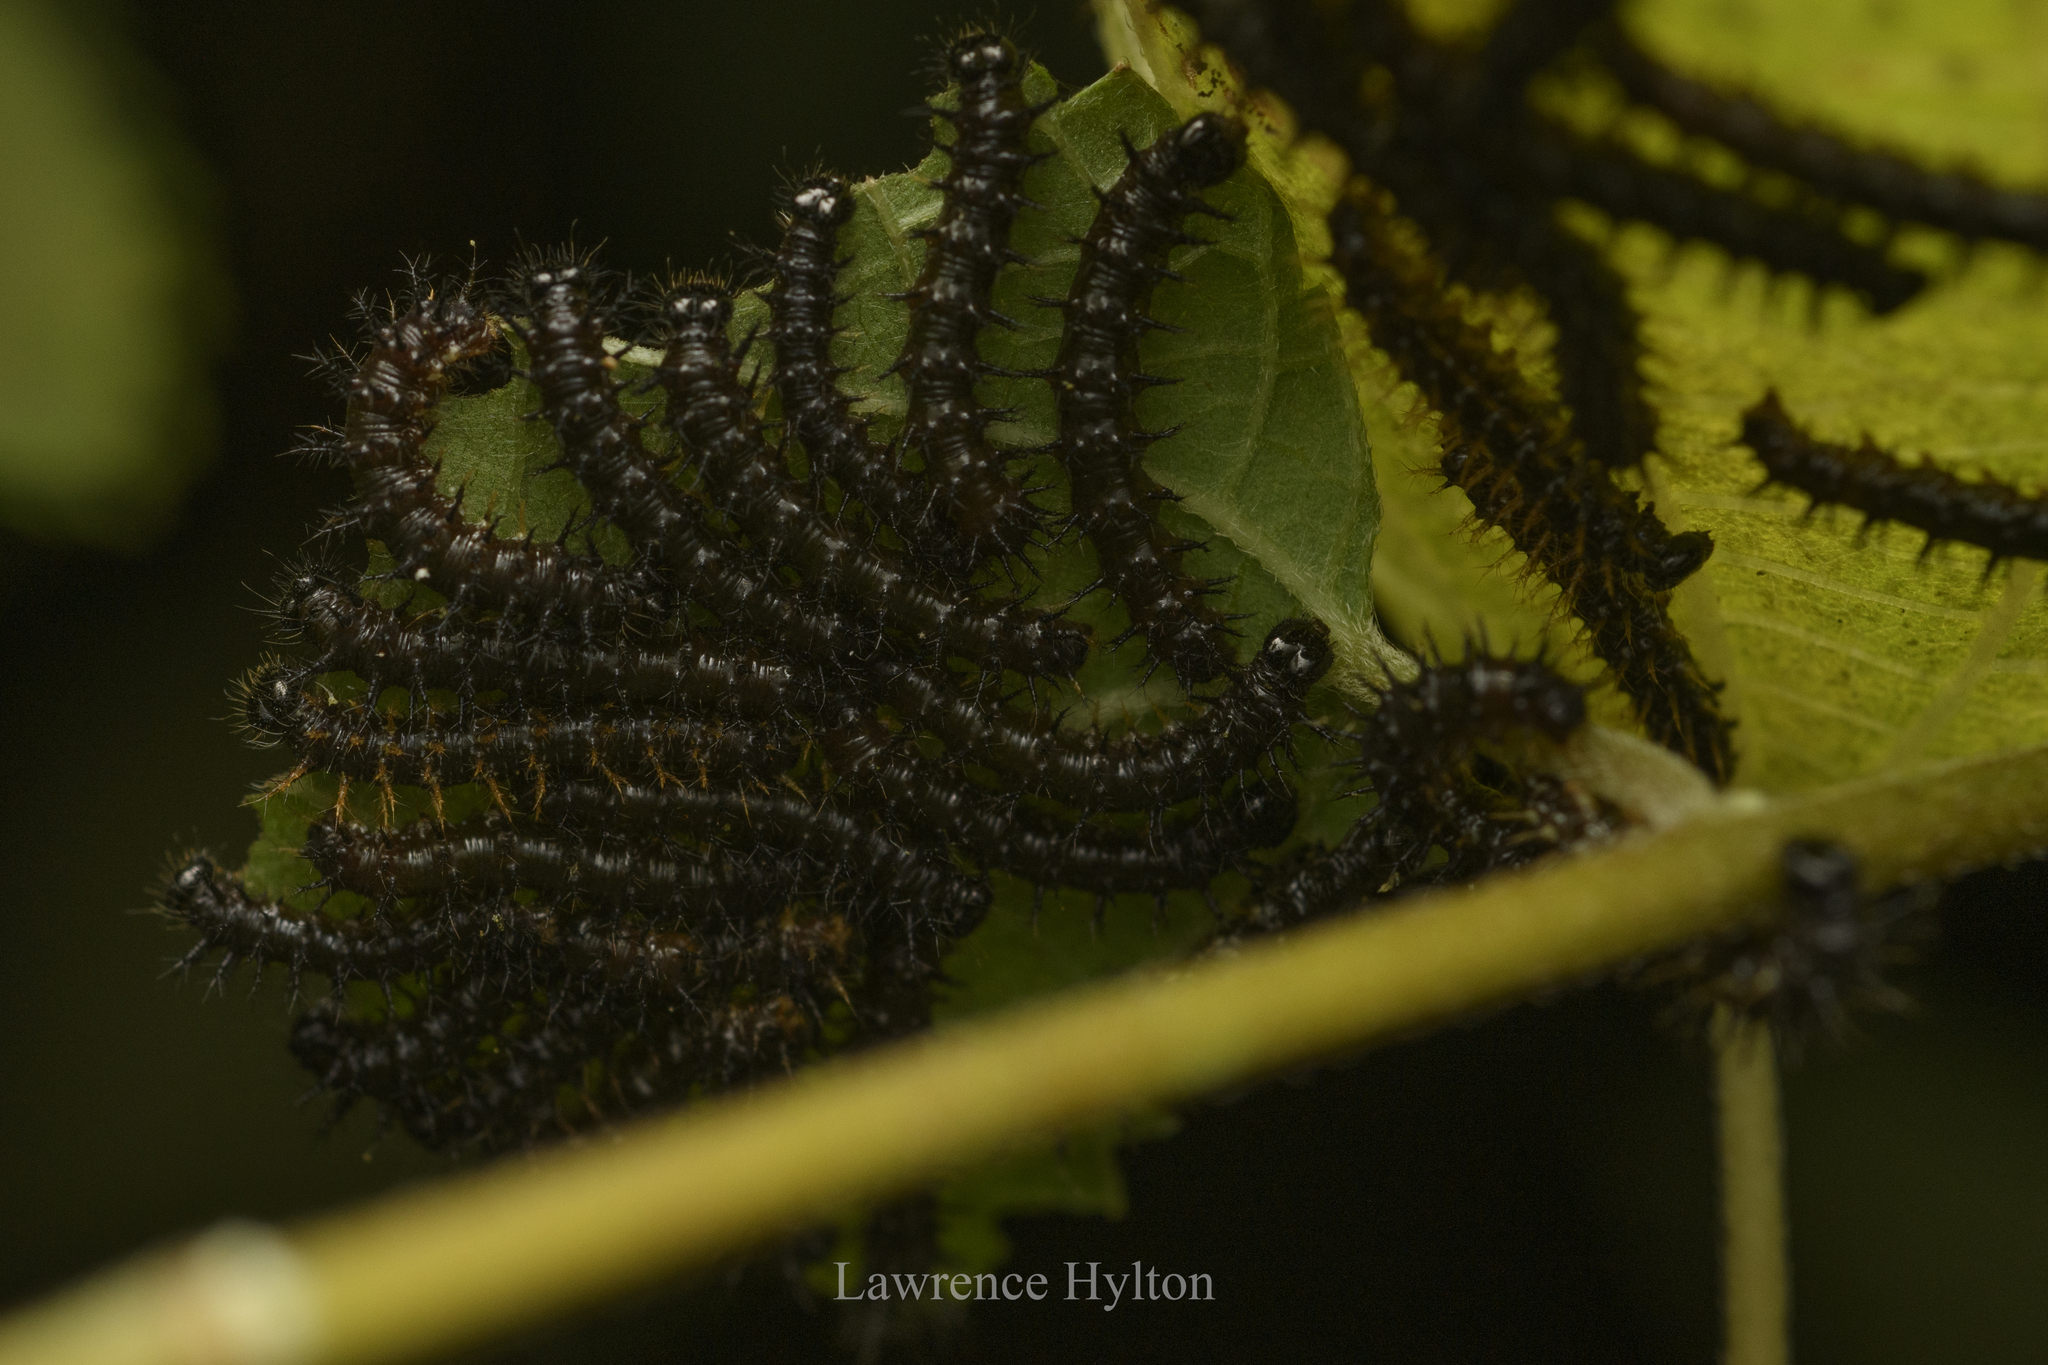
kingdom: Animalia
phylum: Arthropoda
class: Insecta
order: Lepidoptera
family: Nymphalidae
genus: Symbrenthia
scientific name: Symbrenthia hypselis
